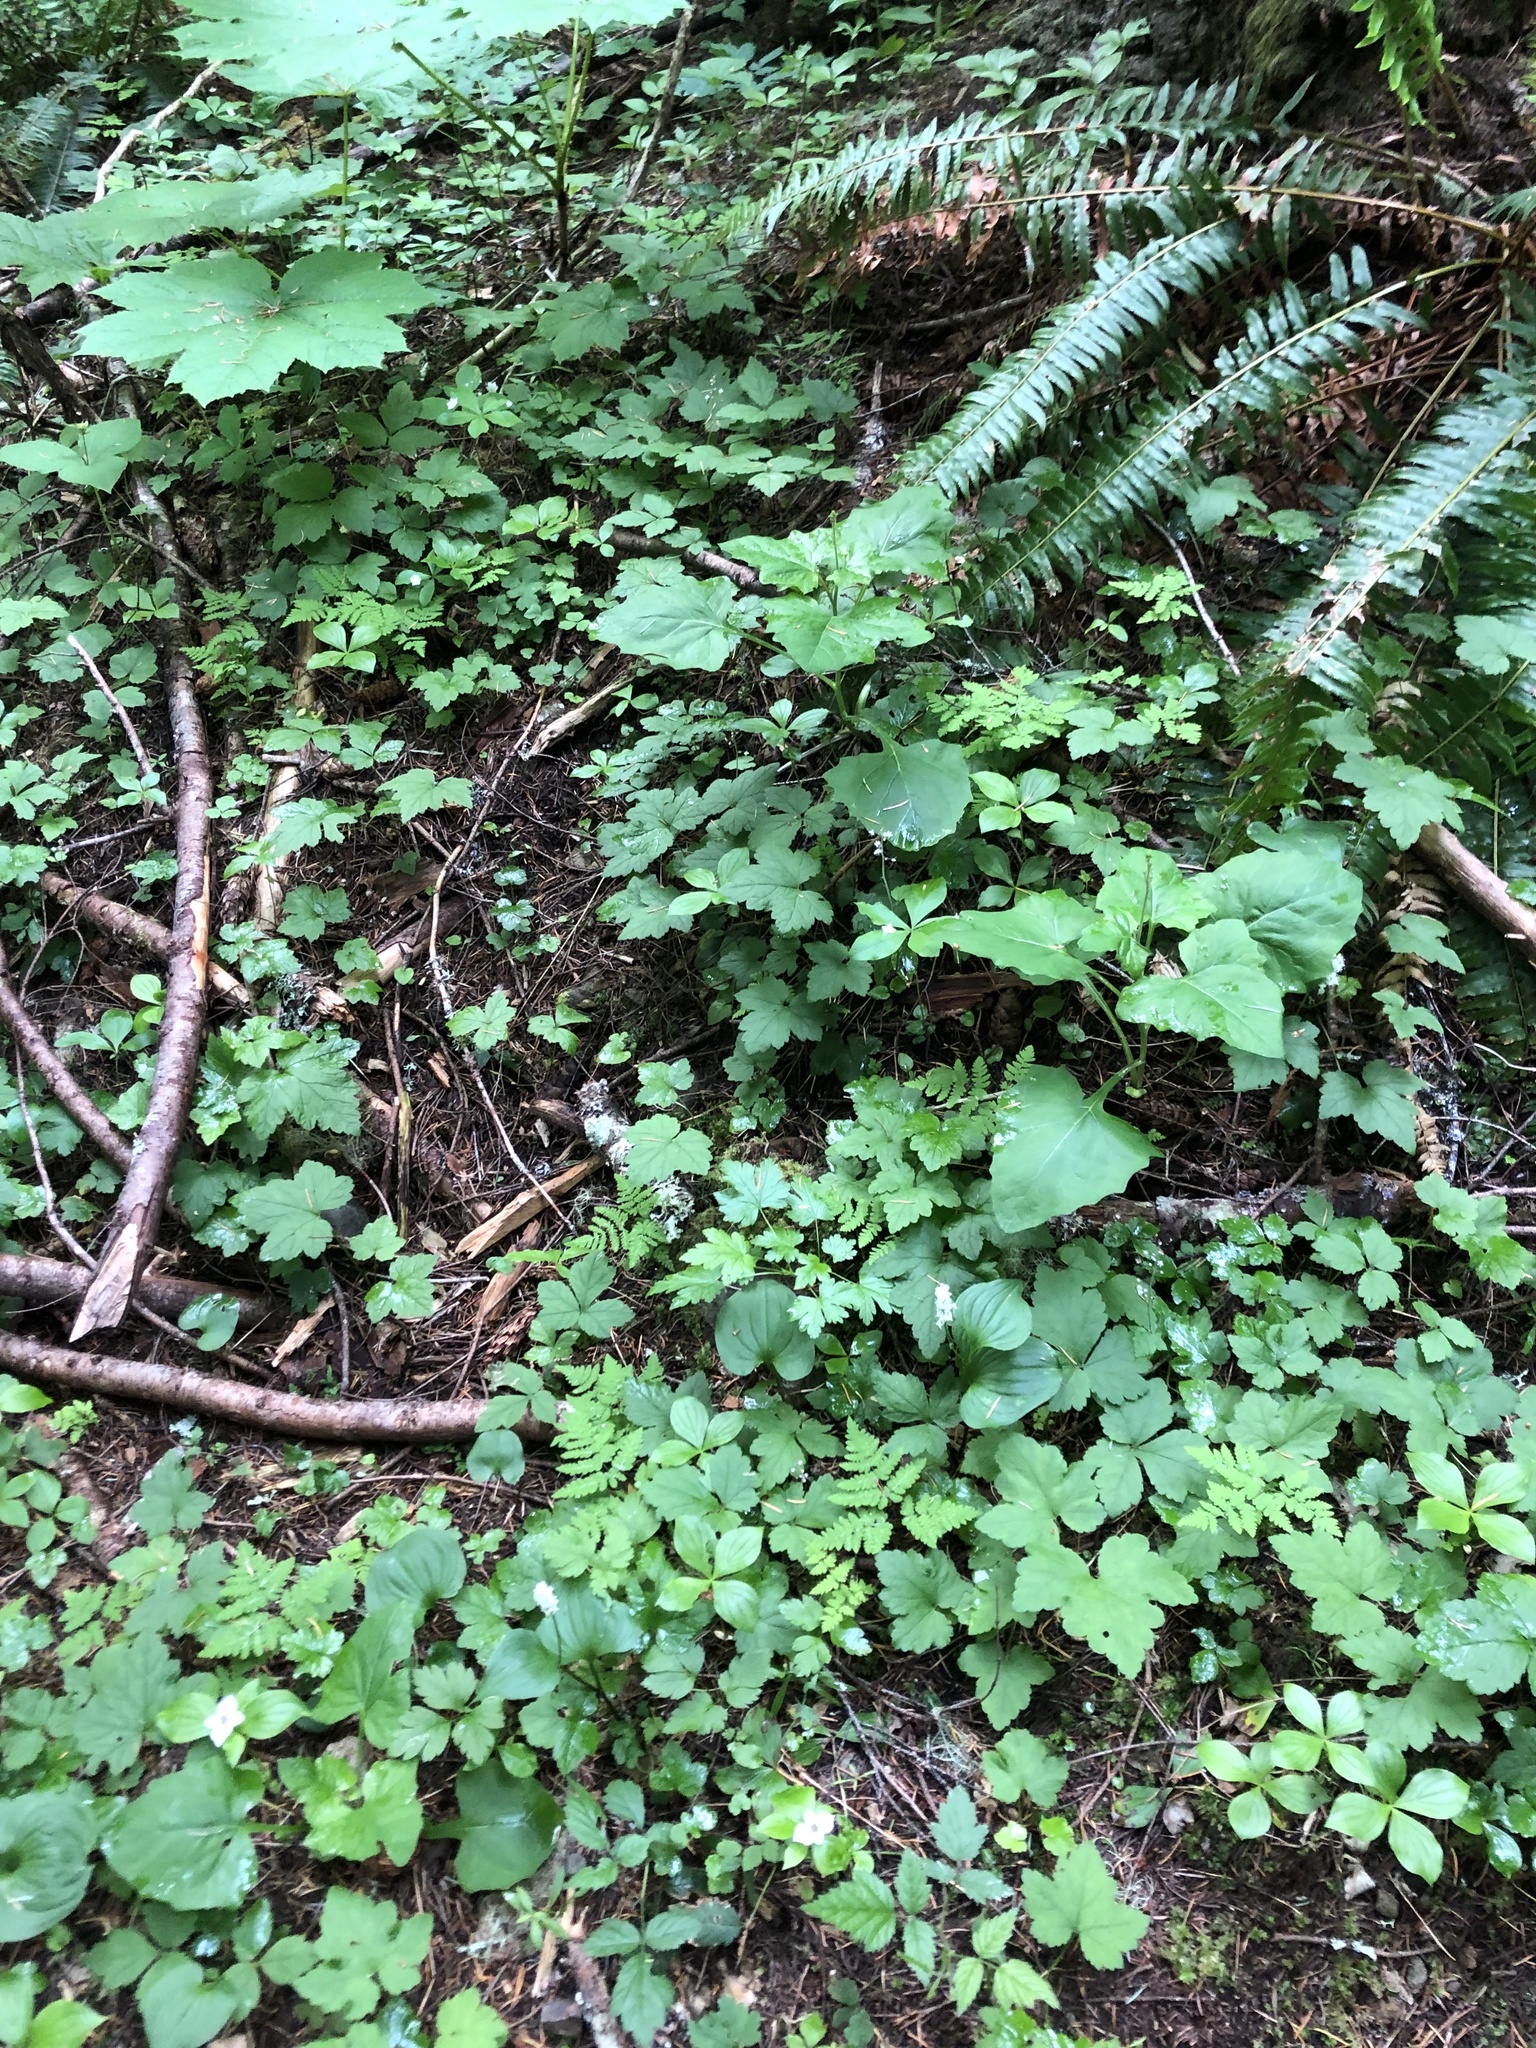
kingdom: Plantae
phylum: Tracheophyta
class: Liliopsida
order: Asparagales
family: Asparagaceae
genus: Maianthemum
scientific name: Maianthemum dilatatum
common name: False lily-of-the-valley
